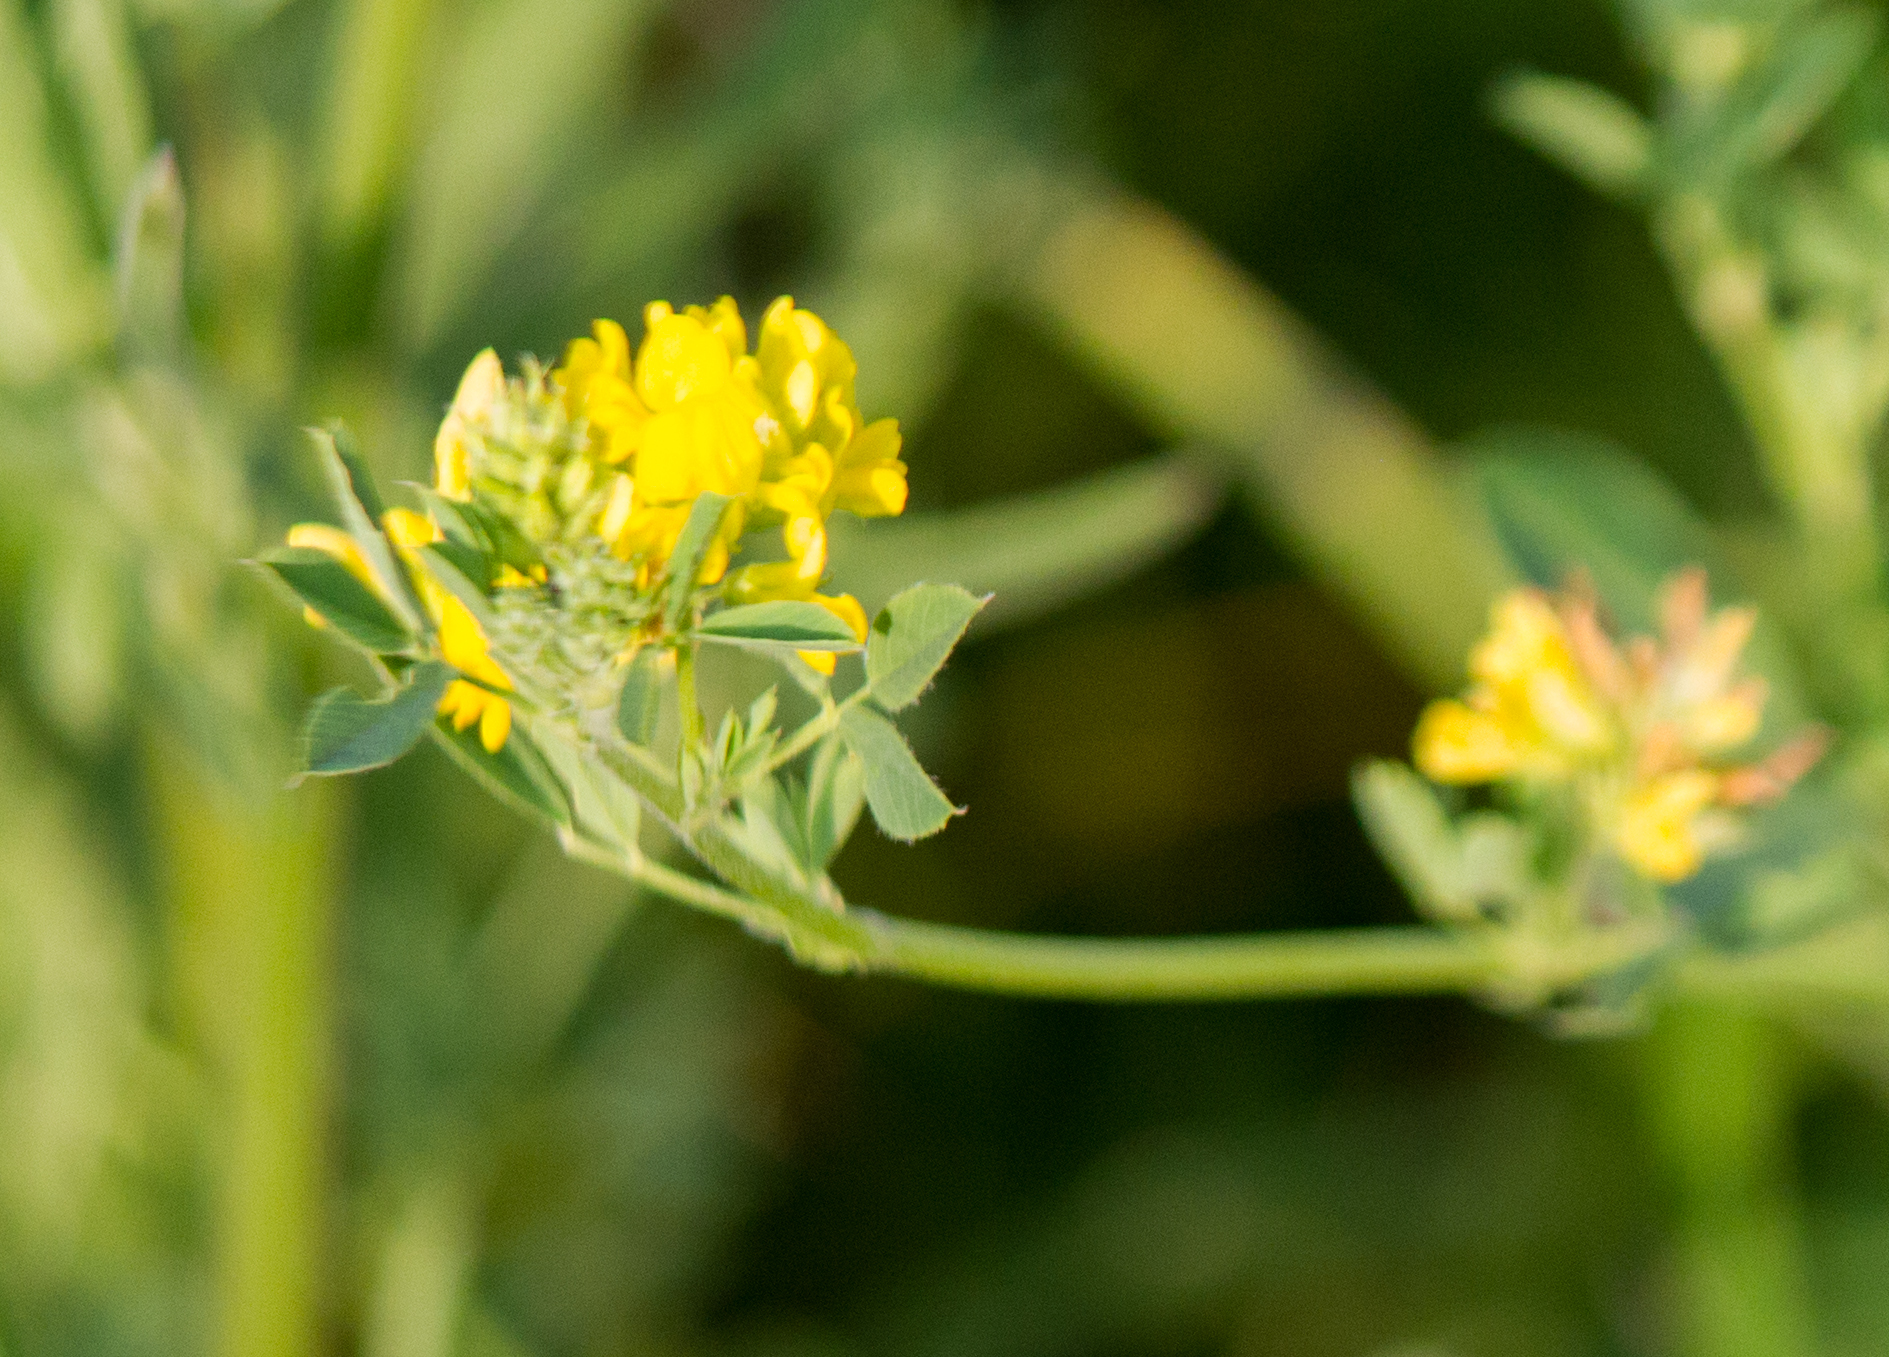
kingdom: Plantae
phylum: Tracheophyta
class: Magnoliopsida
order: Fabales
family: Fabaceae
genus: Medicago
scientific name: Medicago falcata
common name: Sickle medick
